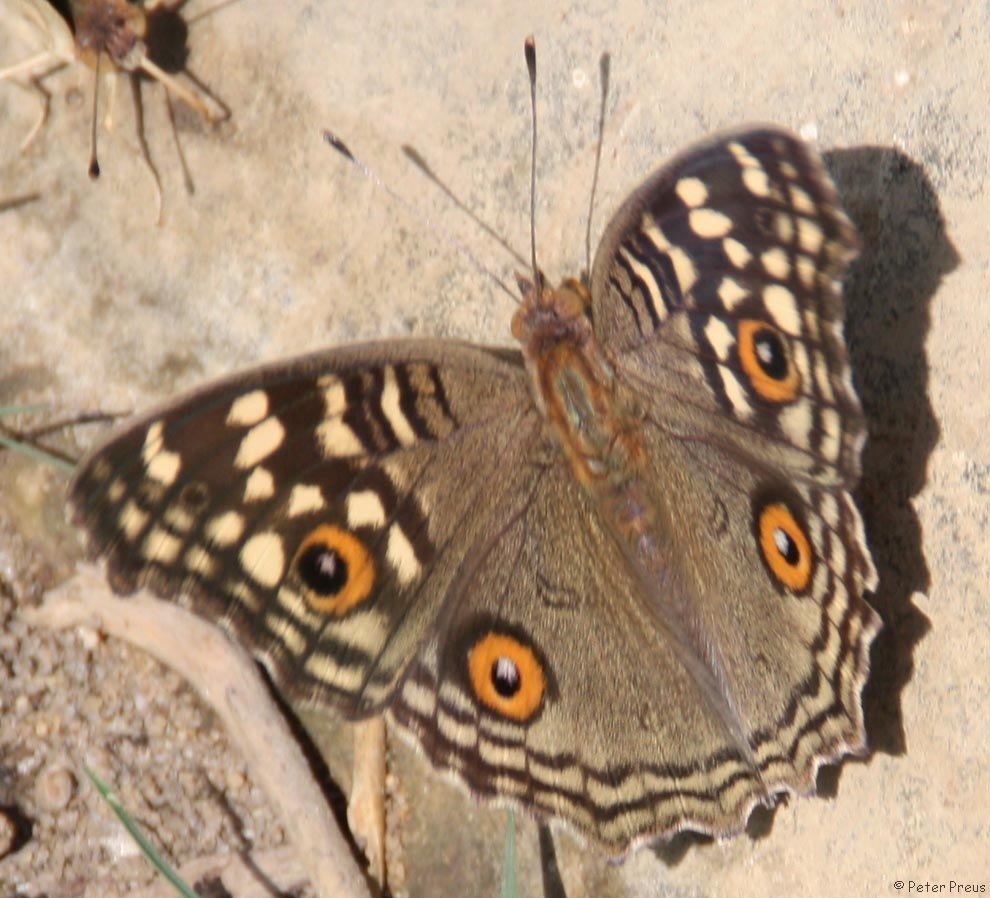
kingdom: Animalia
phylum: Arthropoda
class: Insecta
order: Lepidoptera
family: Nymphalidae
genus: Junonia
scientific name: Junonia lemonias
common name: Lemon pansy
